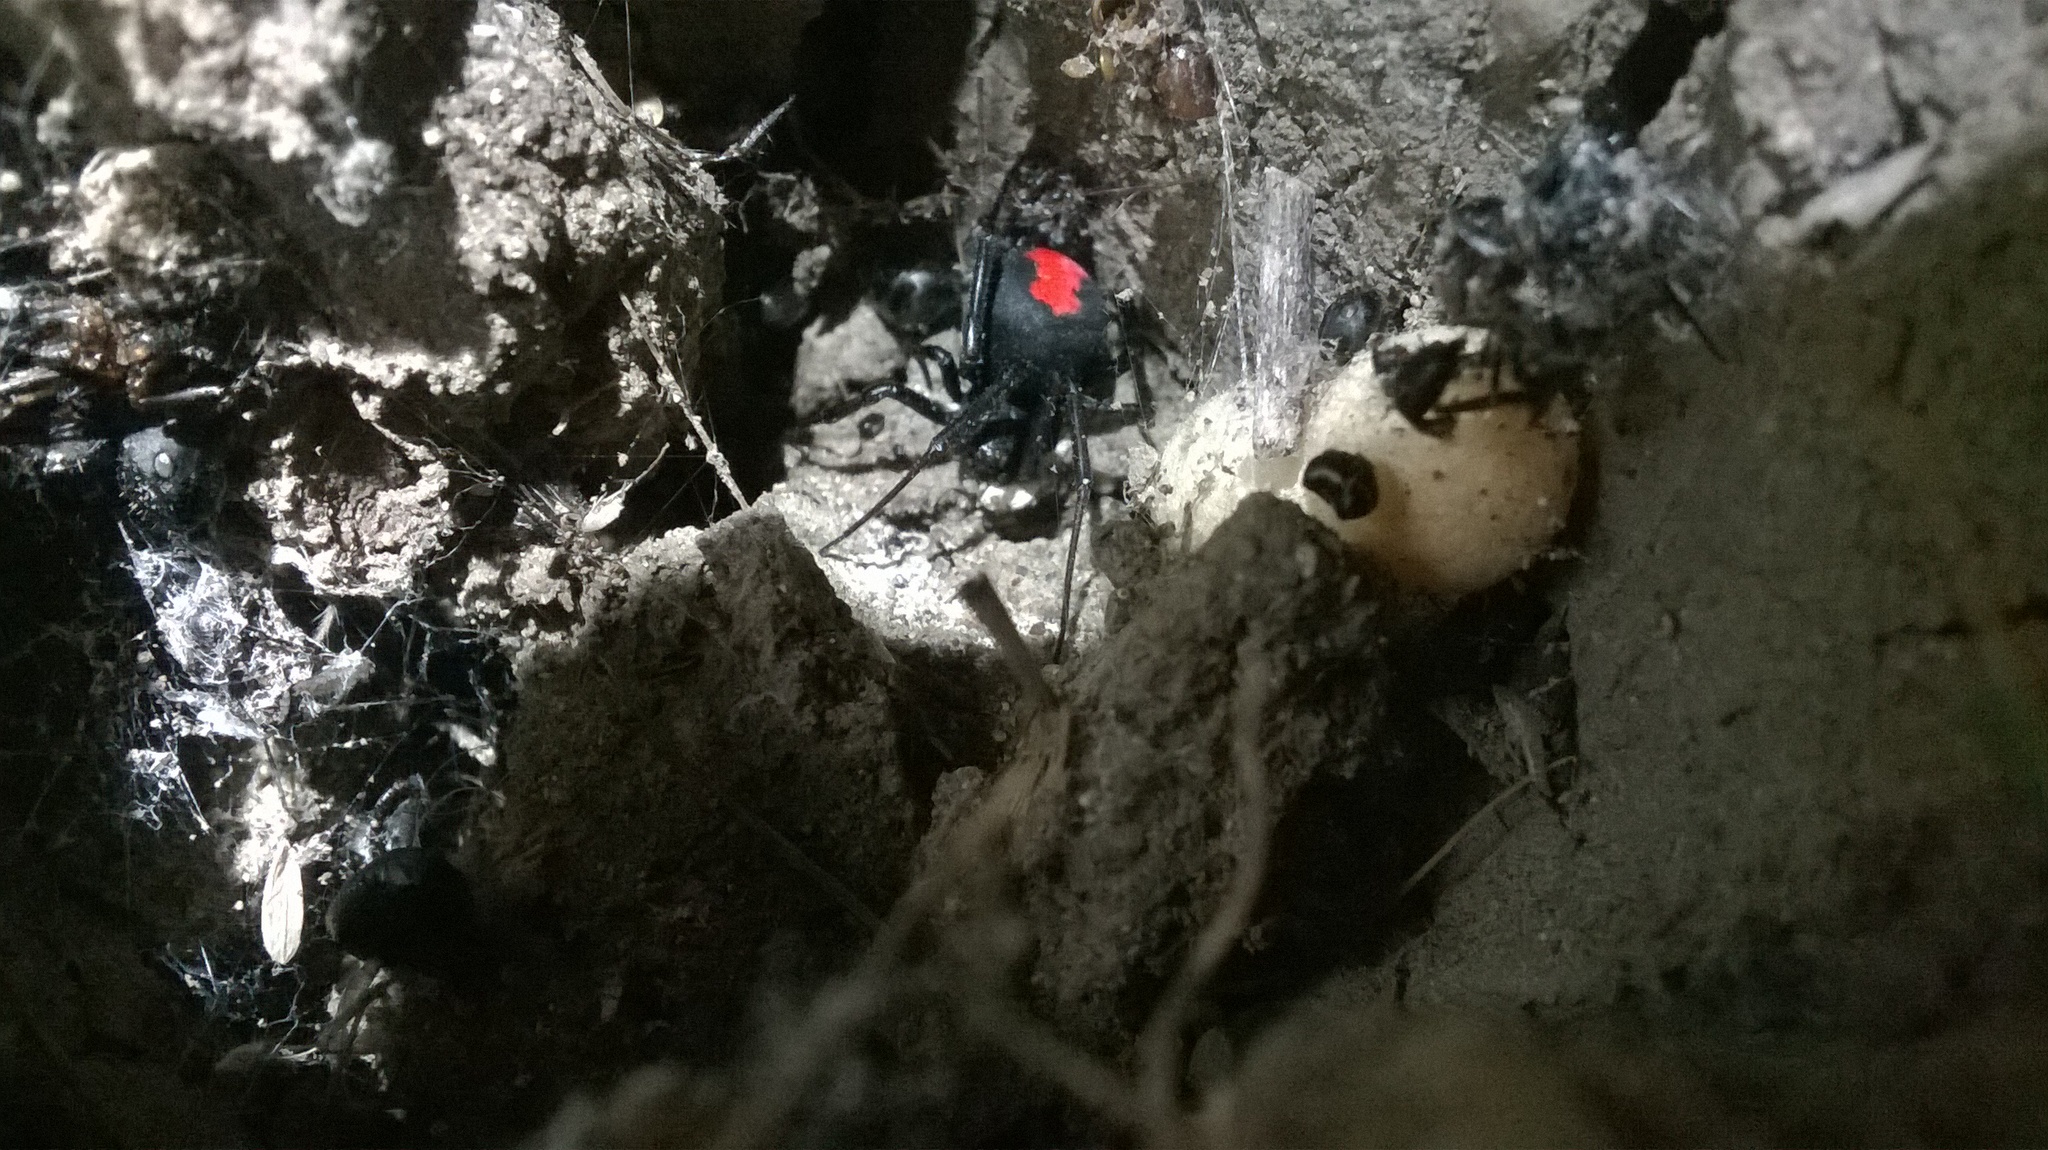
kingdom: Animalia
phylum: Arthropoda
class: Arachnida
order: Araneae
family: Theridiidae
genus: Latrodectus
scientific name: Latrodectus erythromelas
